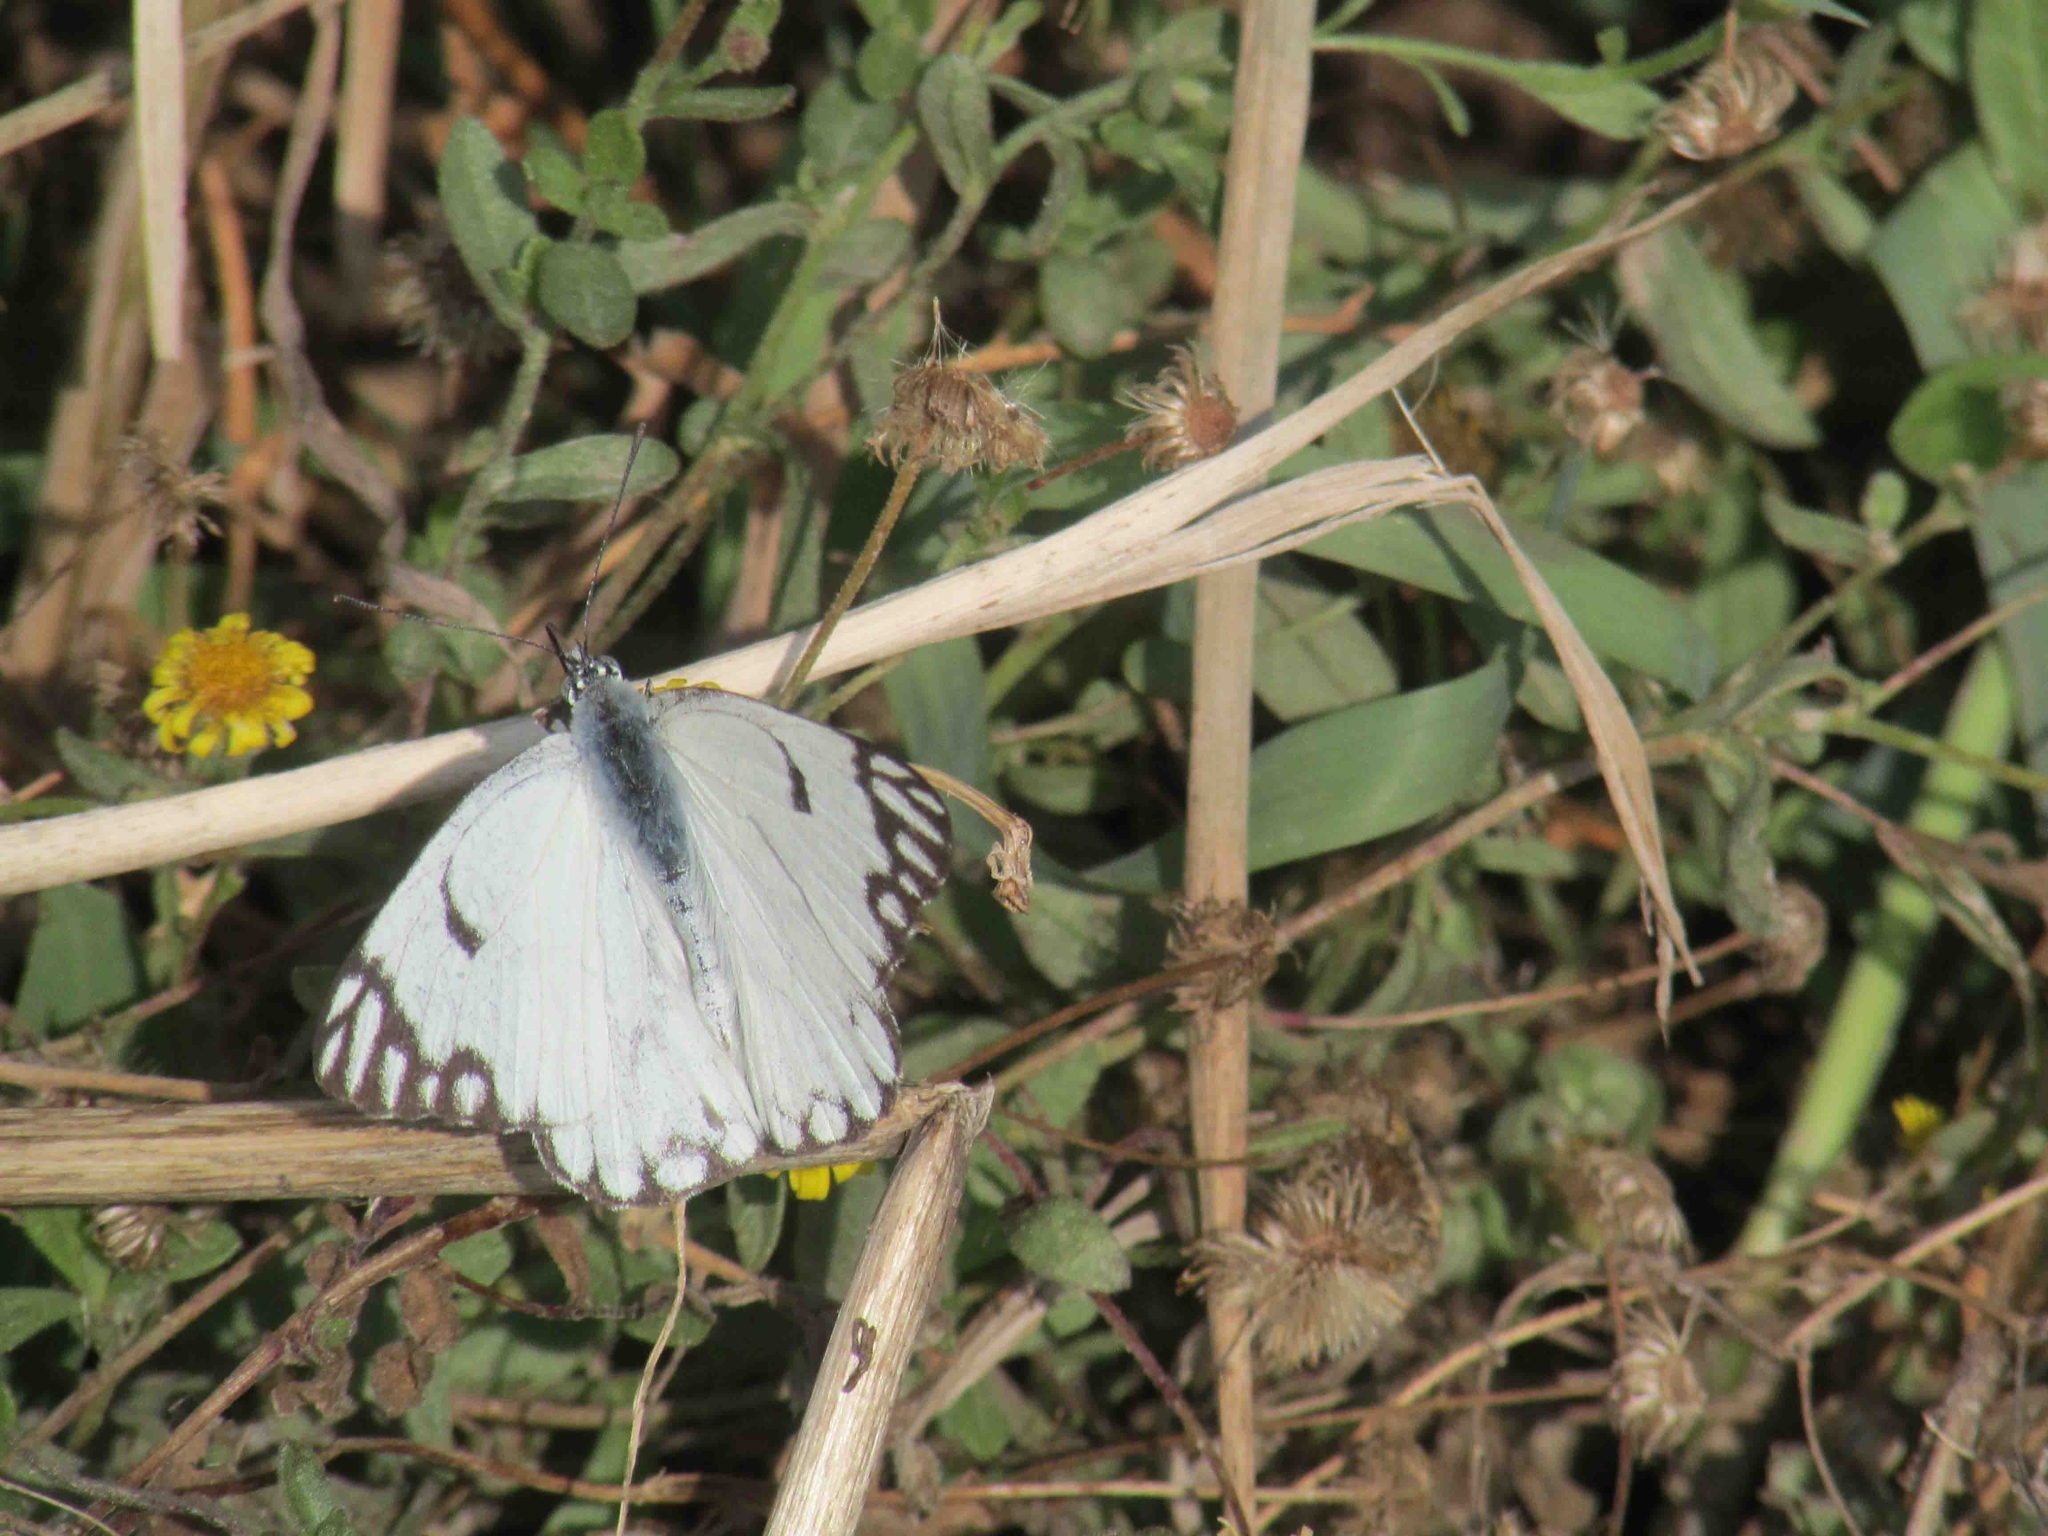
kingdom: Animalia
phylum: Arthropoda
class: Insecta
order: Lepidoptera
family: Pieridae
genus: Belenois
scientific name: Belenois aurota
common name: Brown-veined white
